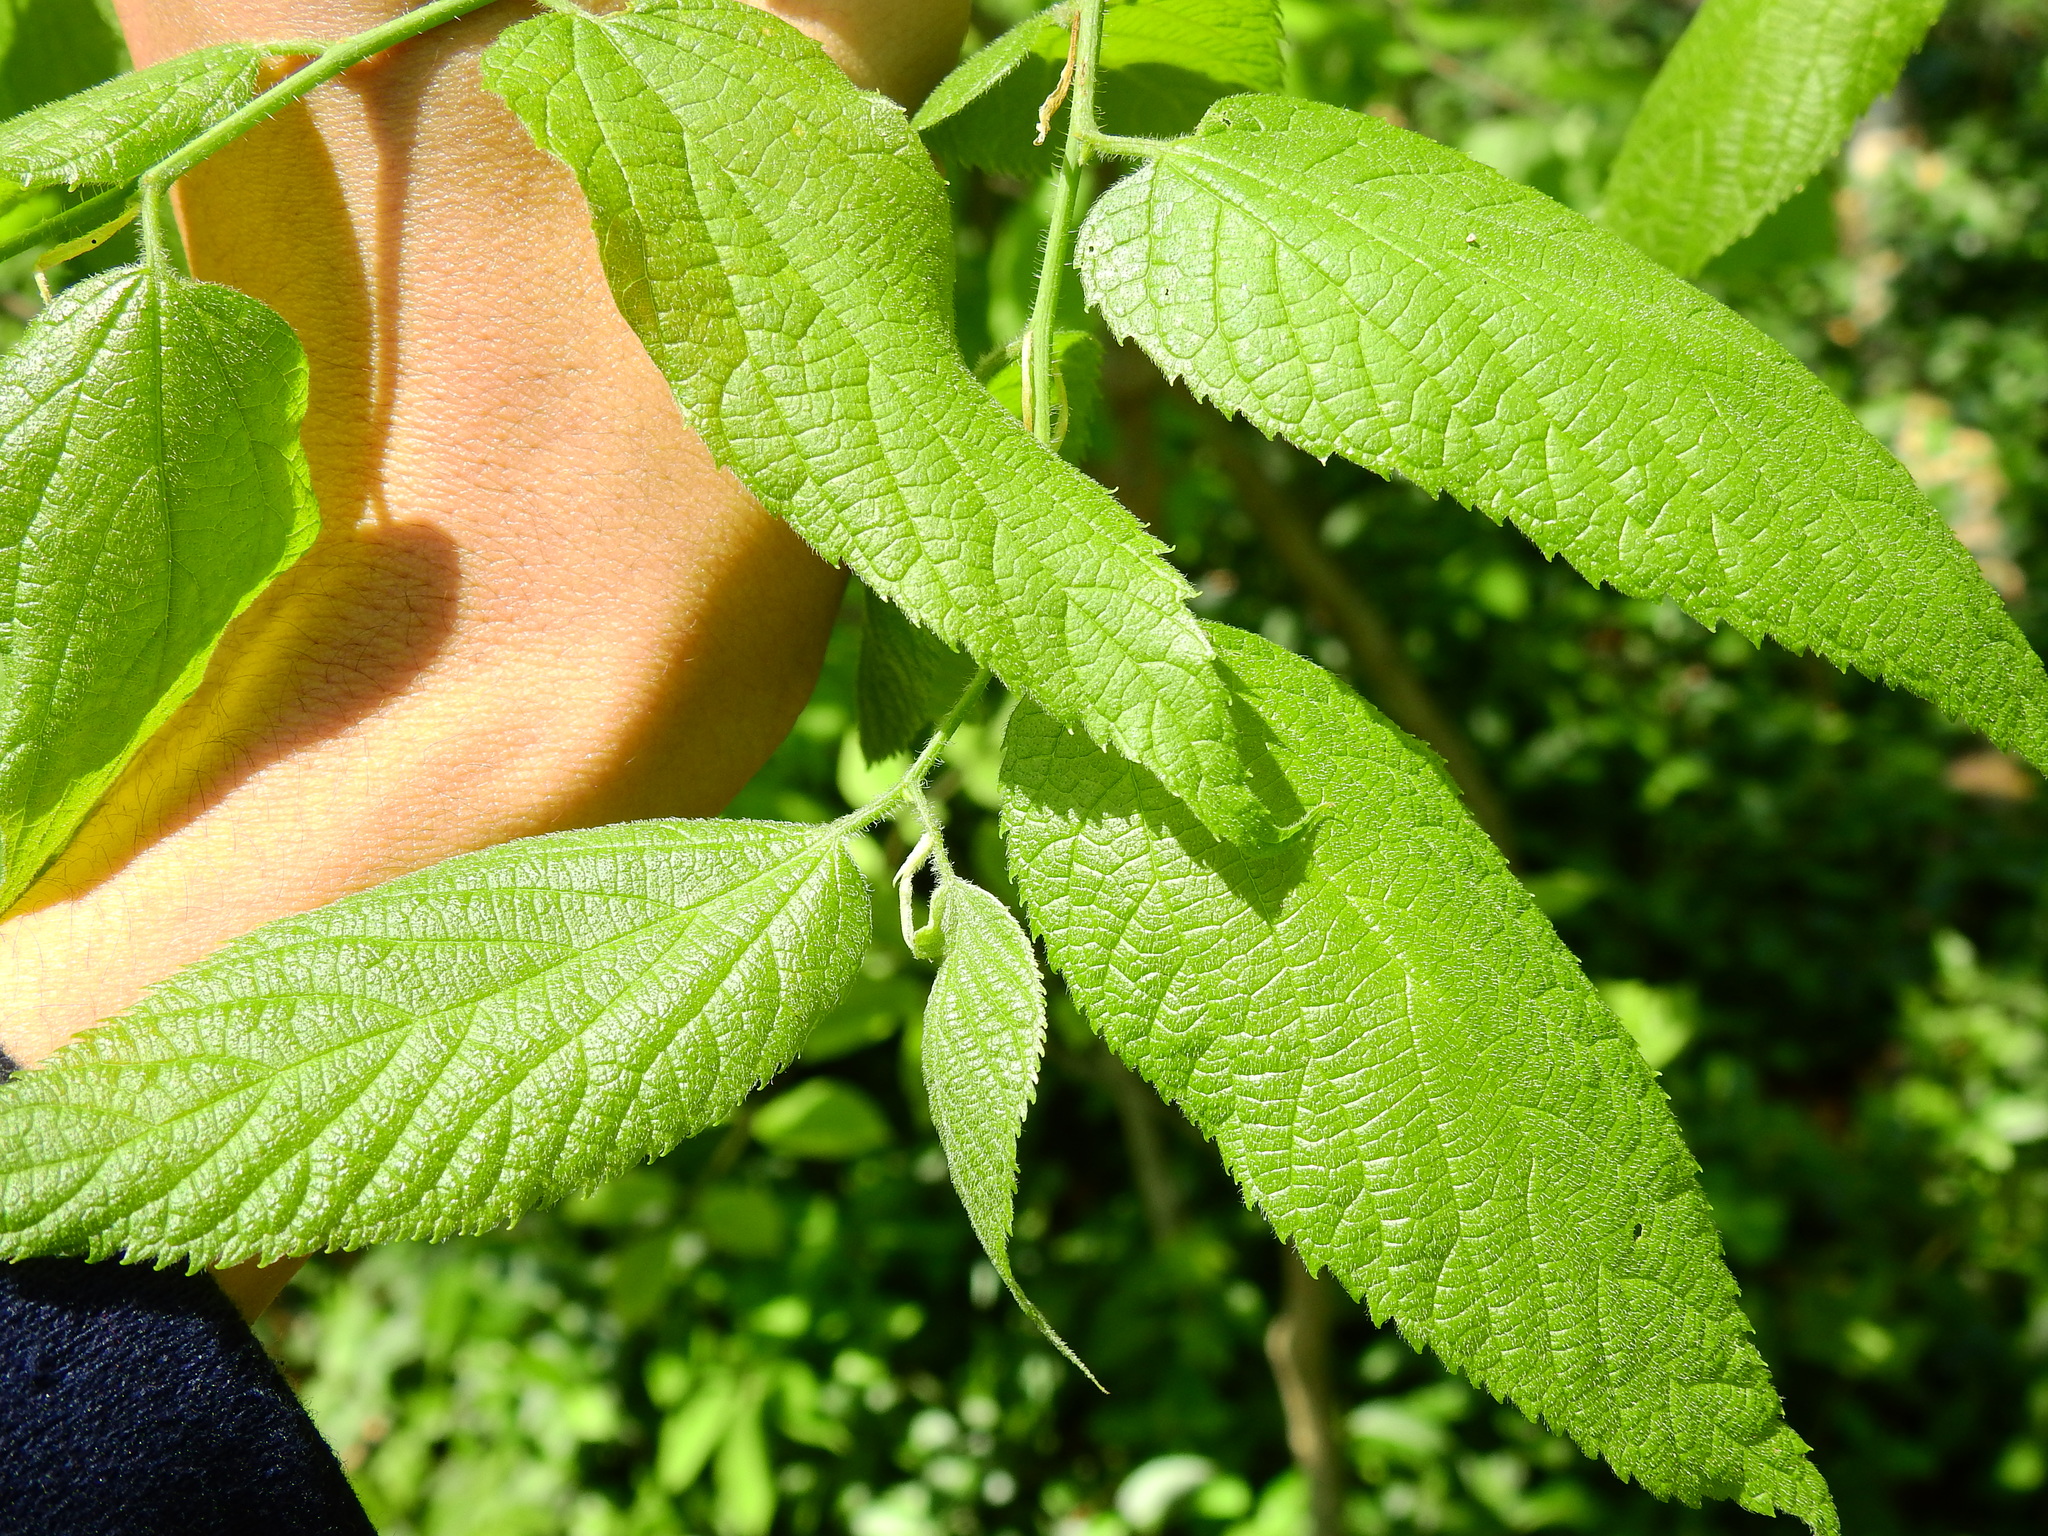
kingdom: Plantae
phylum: Tracheophyta
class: Magnoliopsida
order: Rosales
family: Cannabaceae
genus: Celtis
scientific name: Celtis occidentalis
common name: Common hackberry
